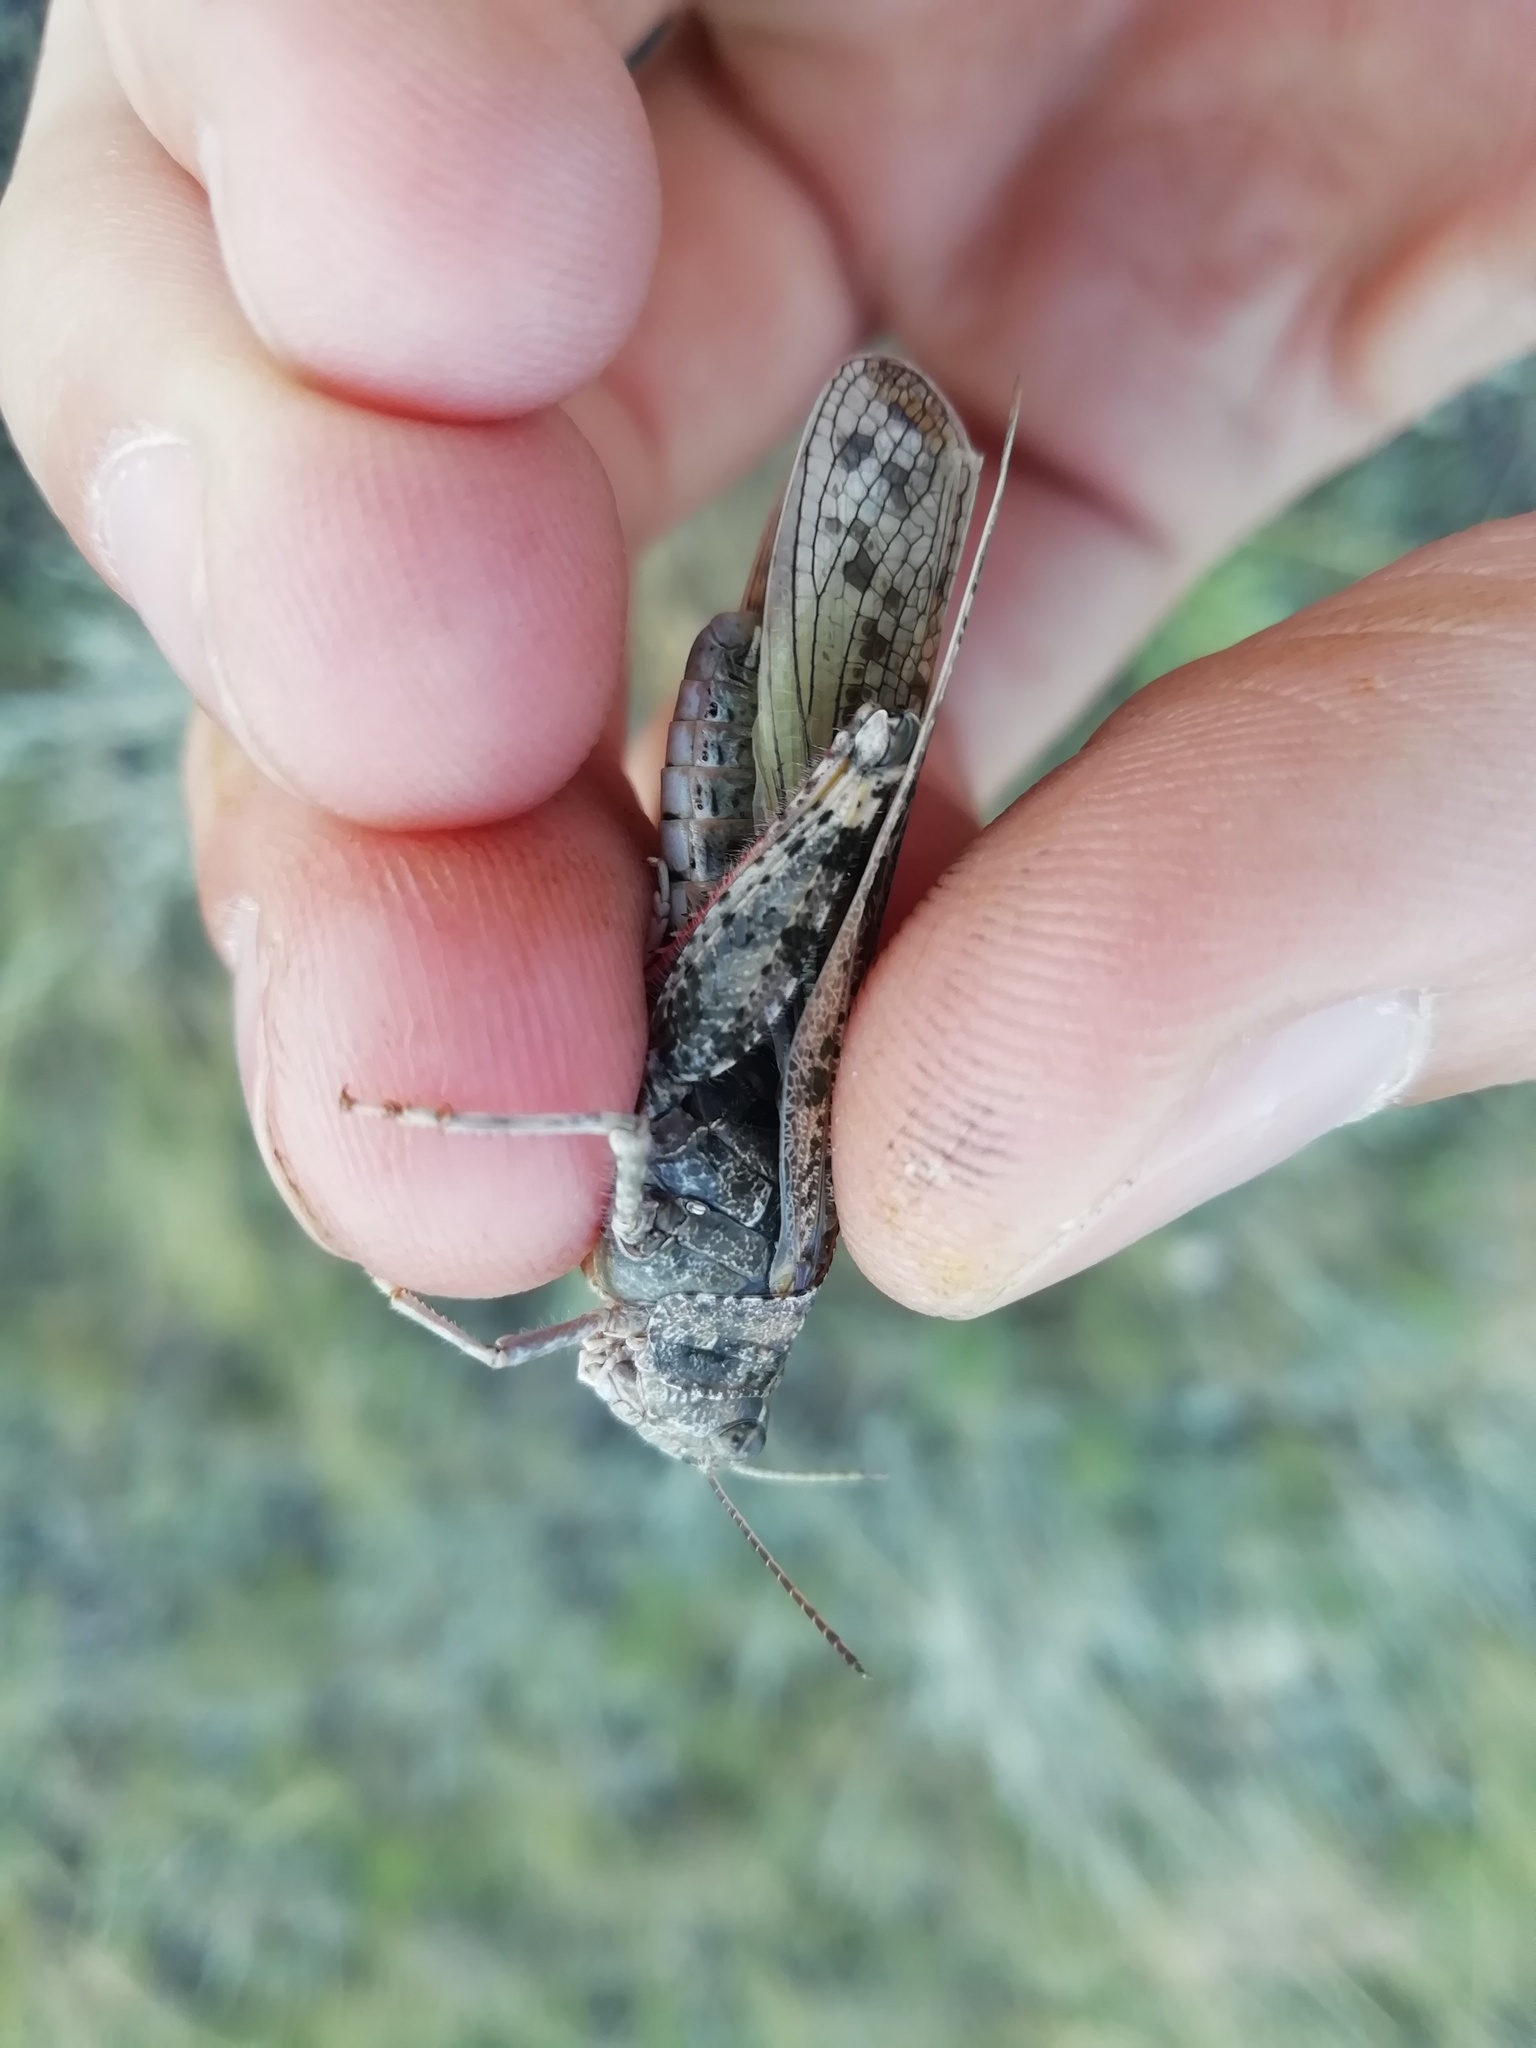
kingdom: Animalia
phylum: Arthropoda
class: Insecta
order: Orthoptera
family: Acrididae
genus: Angaracris
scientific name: Angaracris barabensis
